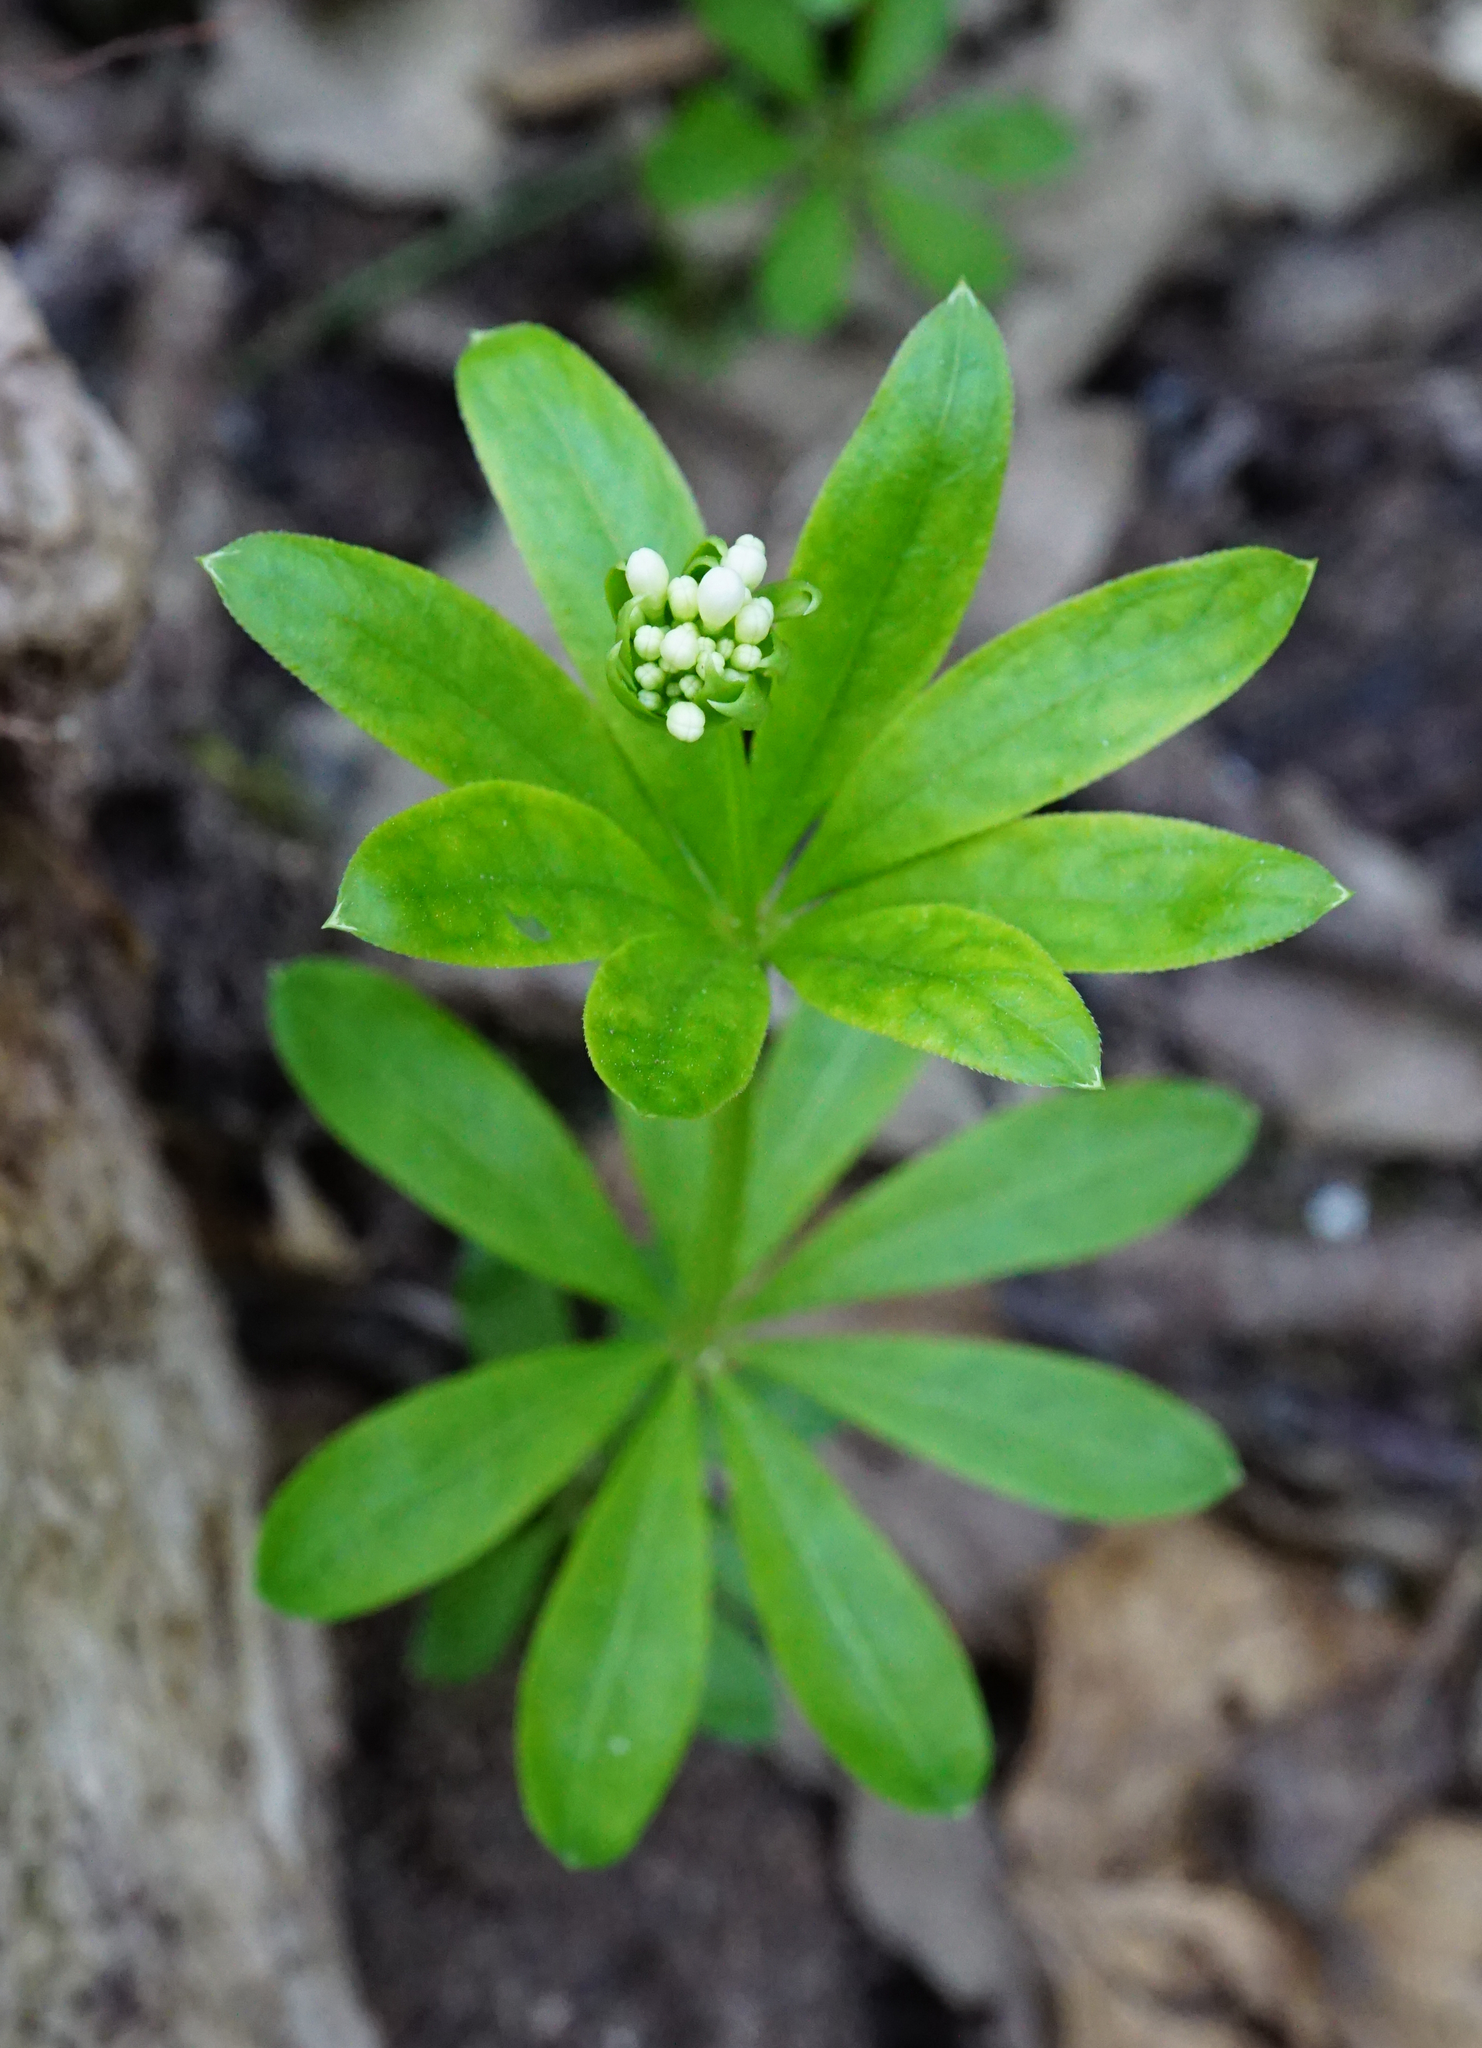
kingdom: Plantae
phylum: Tracheophyta
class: Magnoliopsida
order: Gentianales
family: Rubiaceae
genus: Galium
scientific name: Galium odoratum
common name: Sweet woodruff
